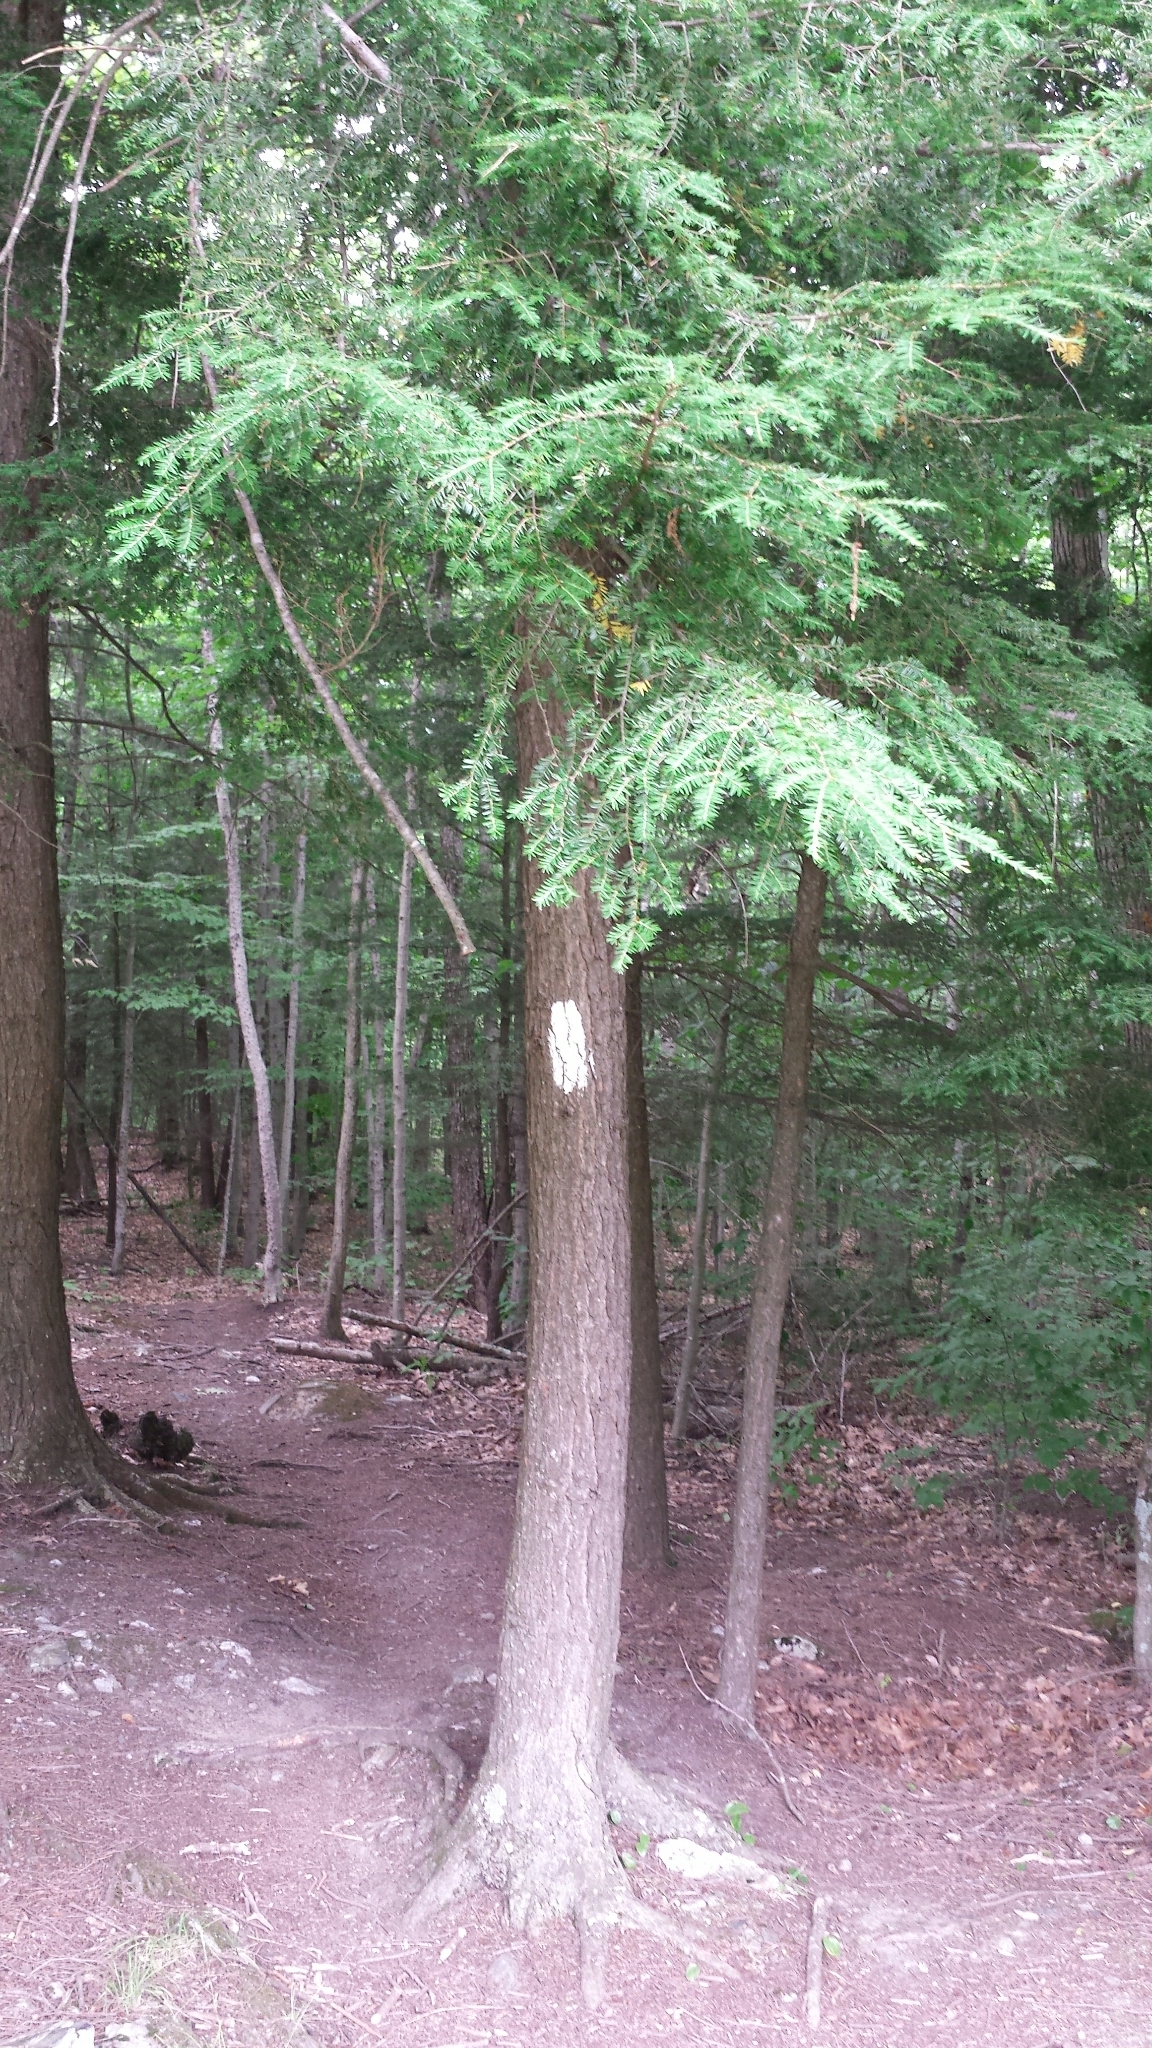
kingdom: Plantae
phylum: Tracheophyta
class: Pinopsida
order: Pinales
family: Pinaceae
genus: Tsuga
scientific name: Tsuga canadensis
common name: Eastern hemlock
